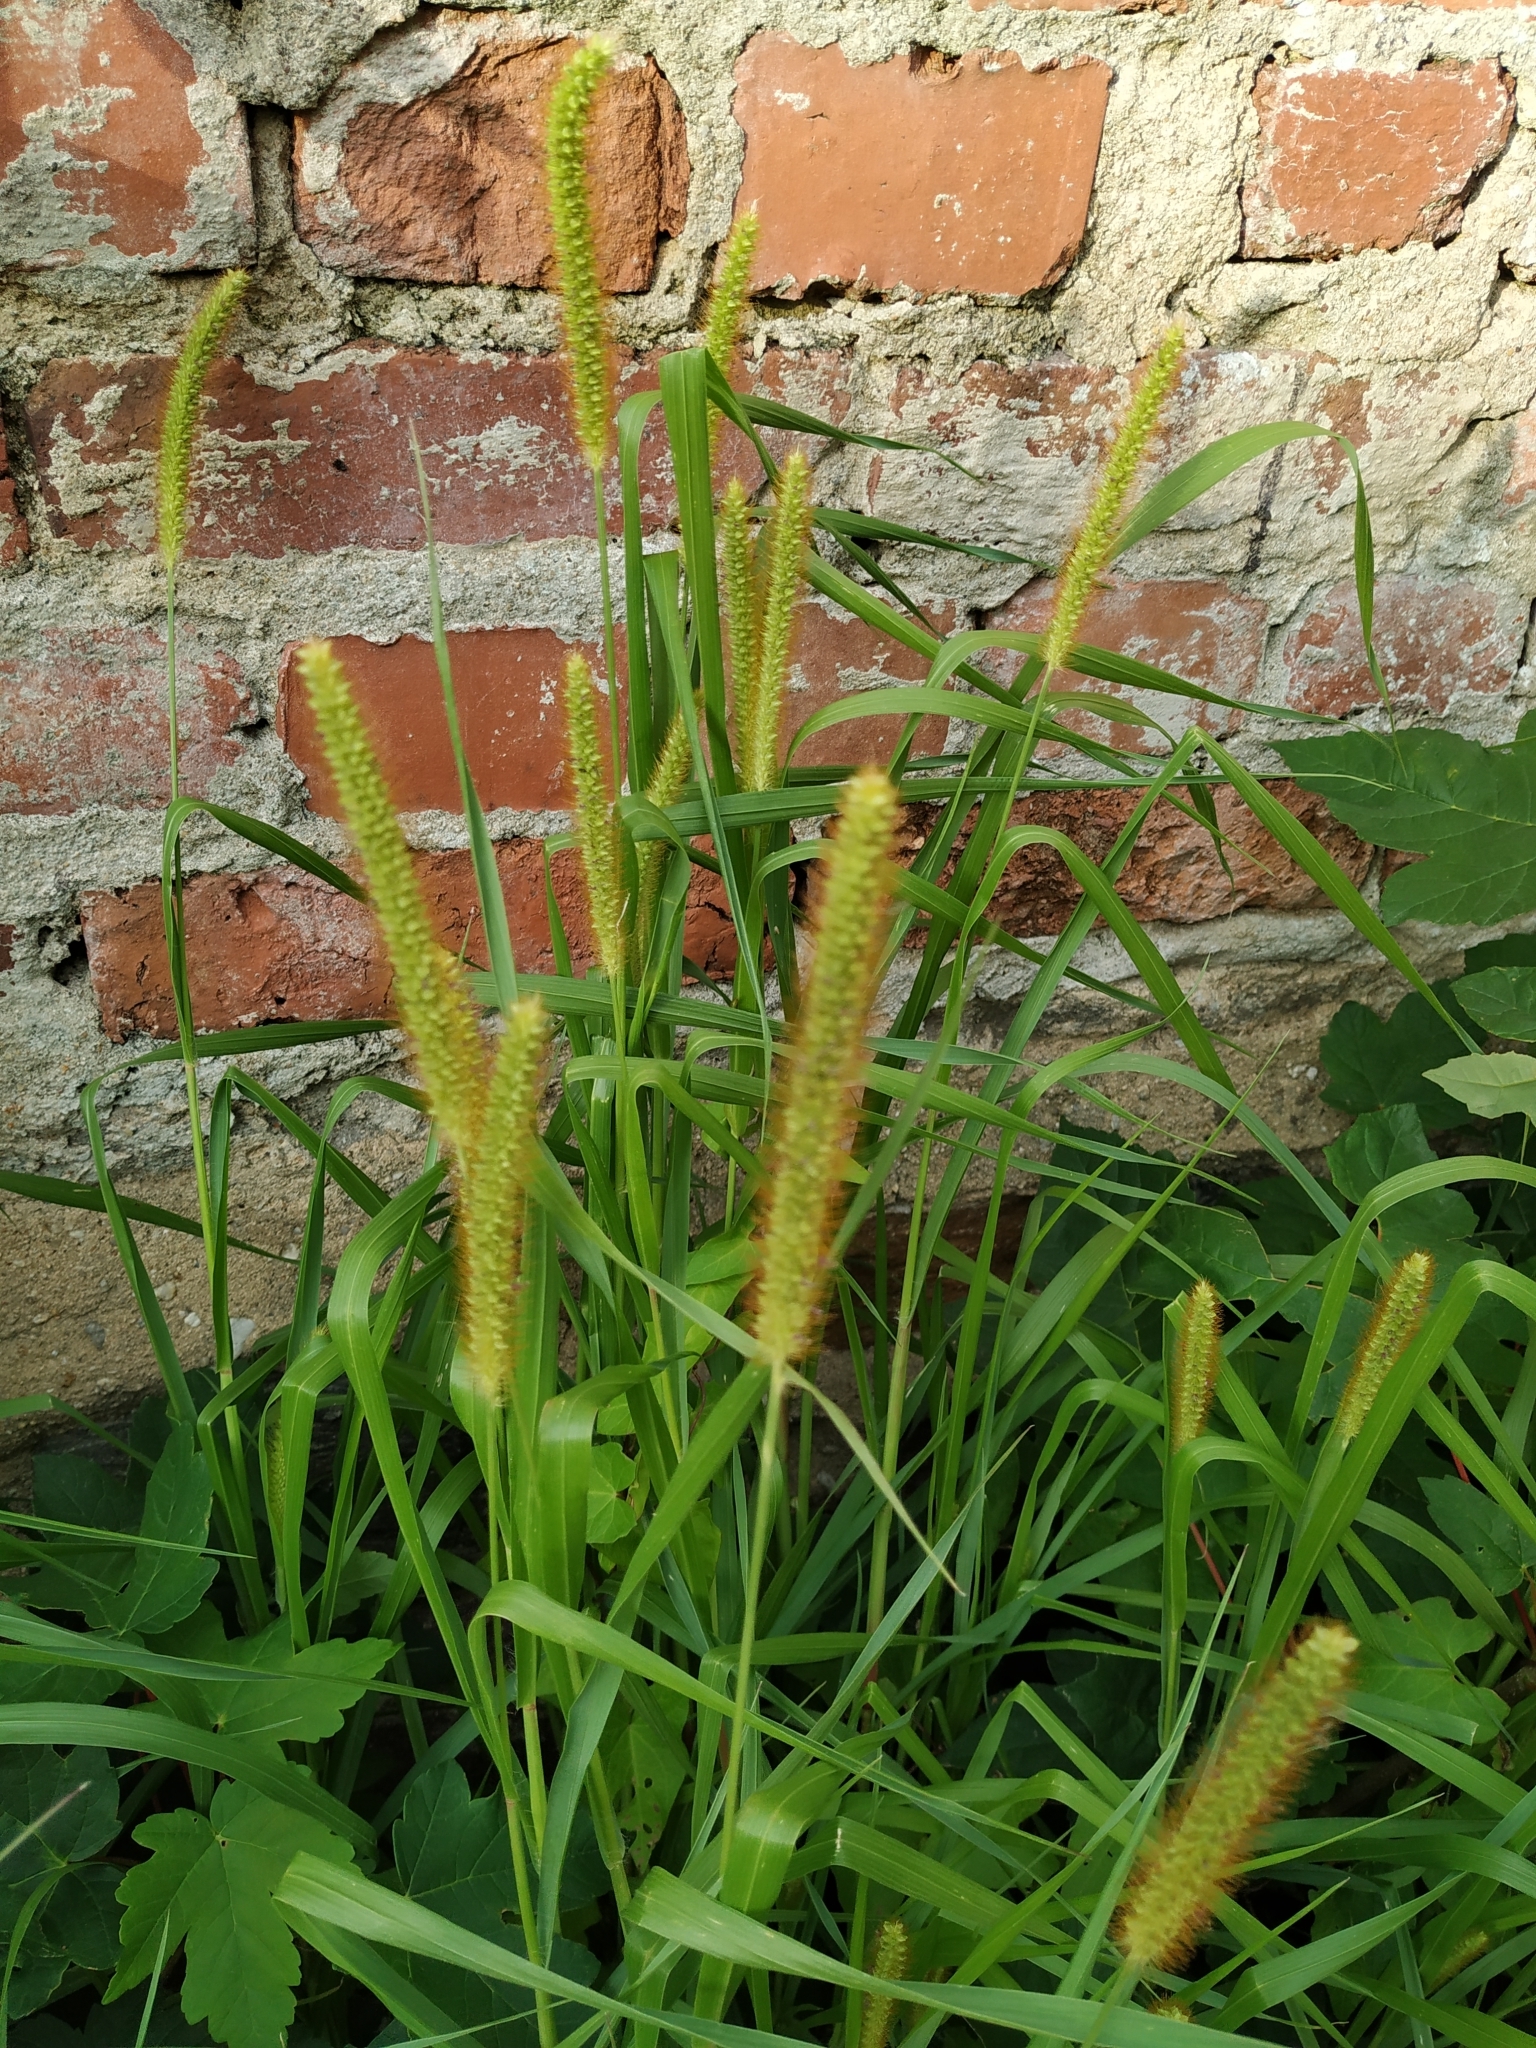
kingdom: Plantae
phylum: Tracheophyta
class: Liliopsida
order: Poales
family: Poaceae
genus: Setaria
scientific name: Setaria pumila
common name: Yellow bristle-grass
